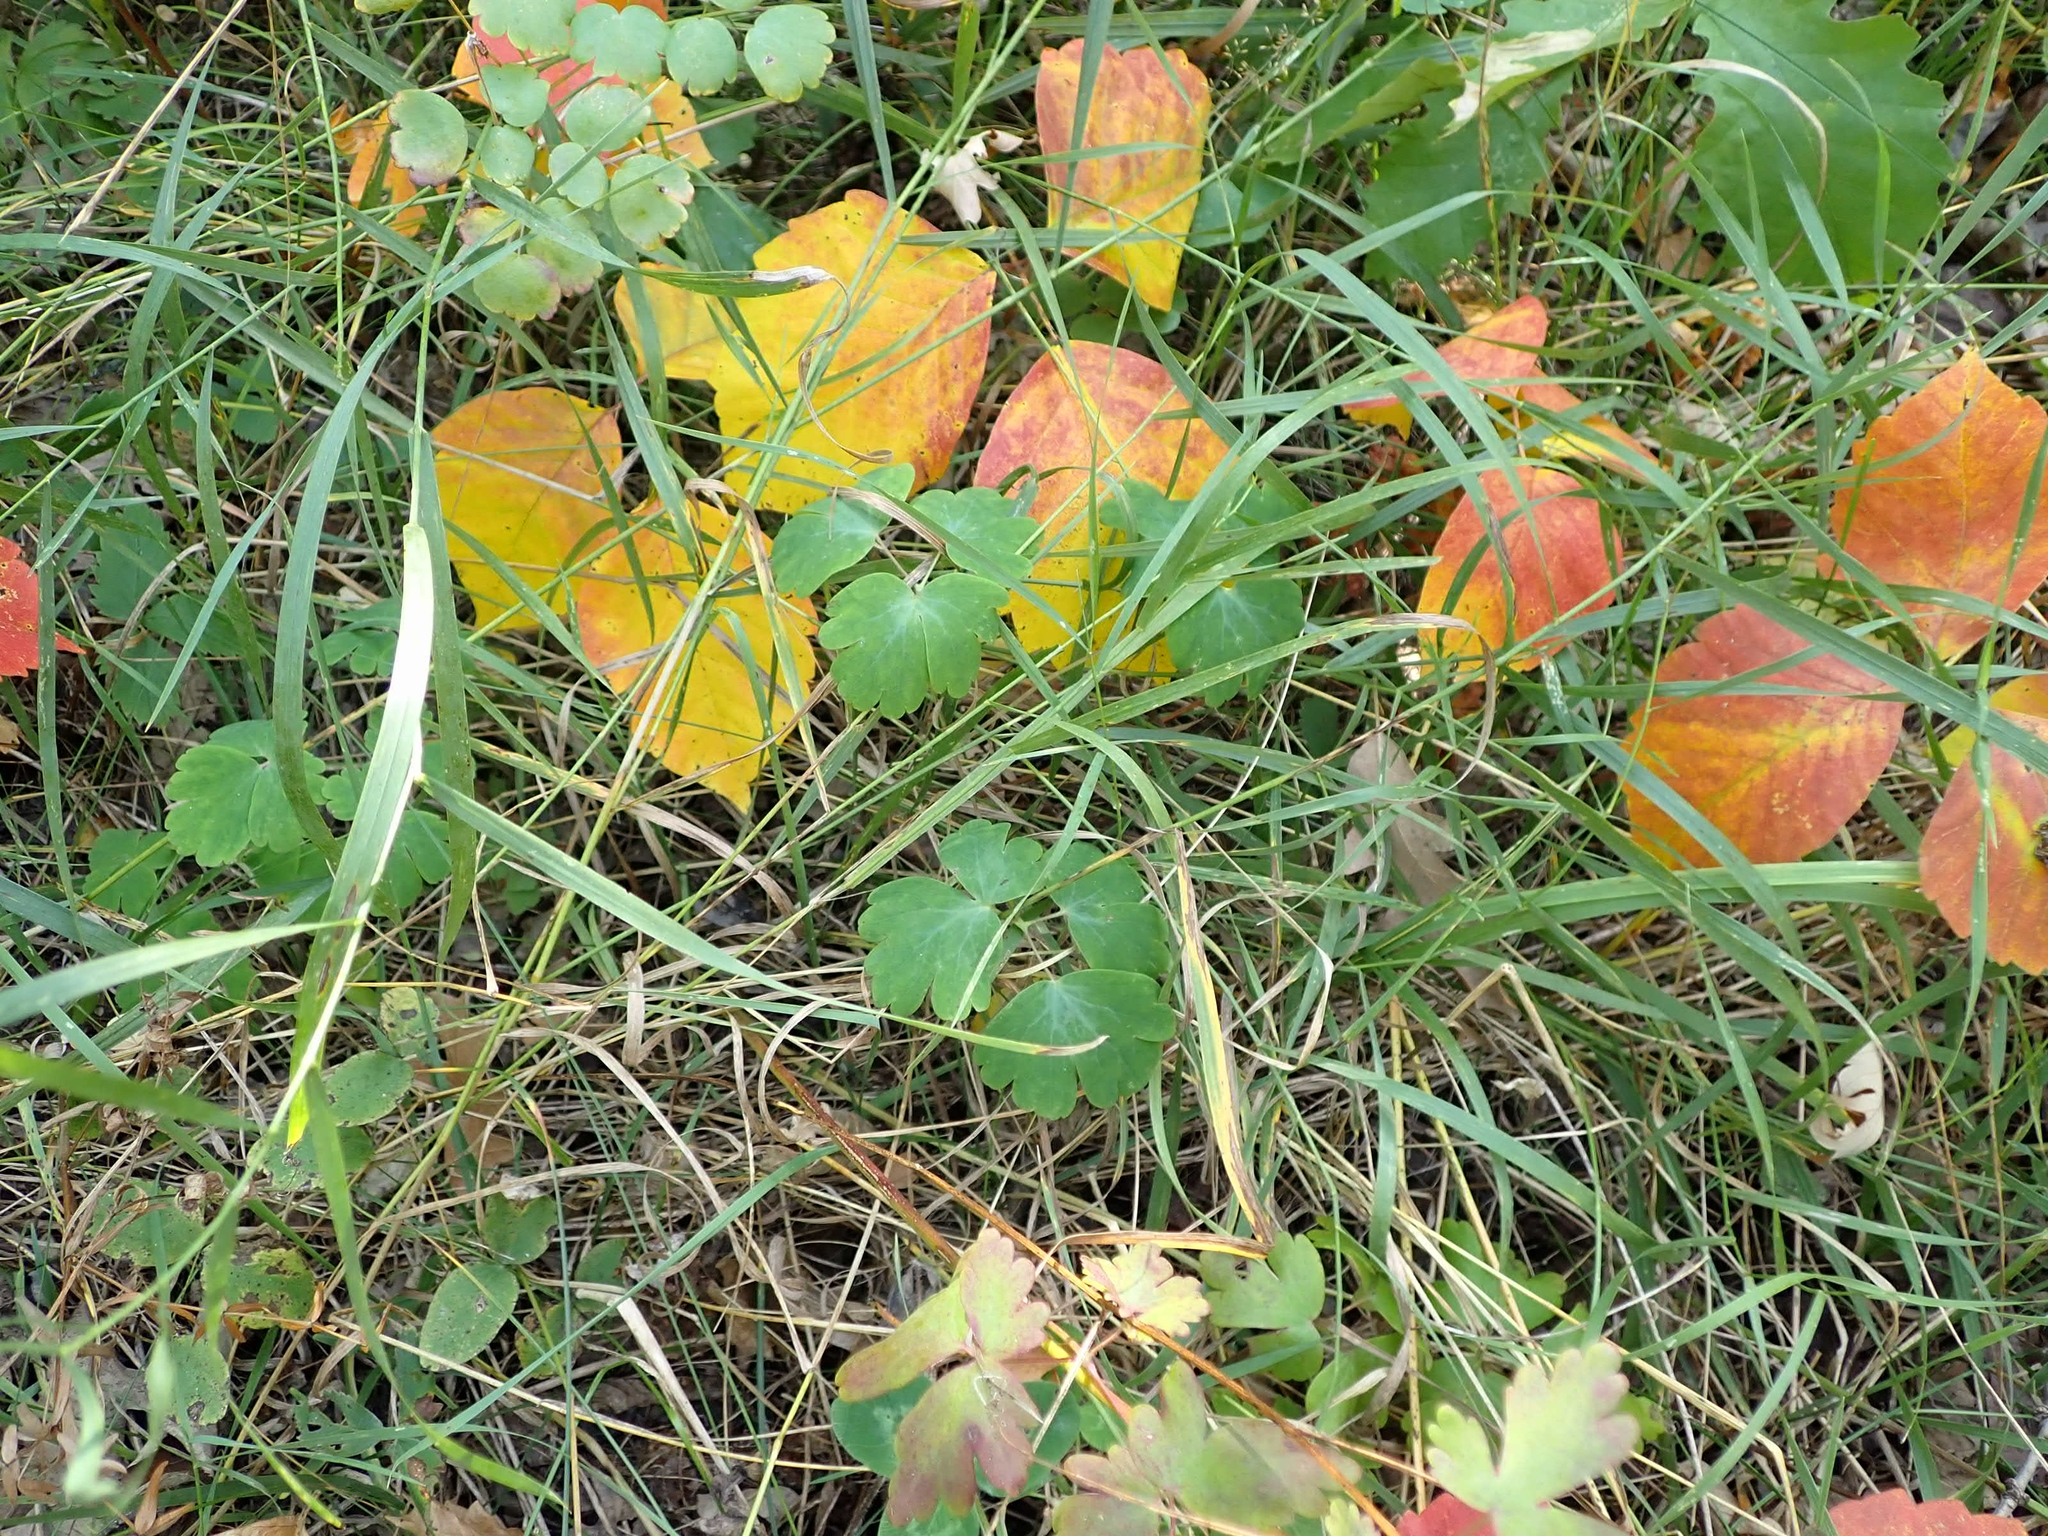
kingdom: Plantae
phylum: Tracheophyta
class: Magnoliopsida
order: Ranunculales
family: Ranunculaceae
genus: Aquilegia
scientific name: Aquilegia canadensis
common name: American columbine
